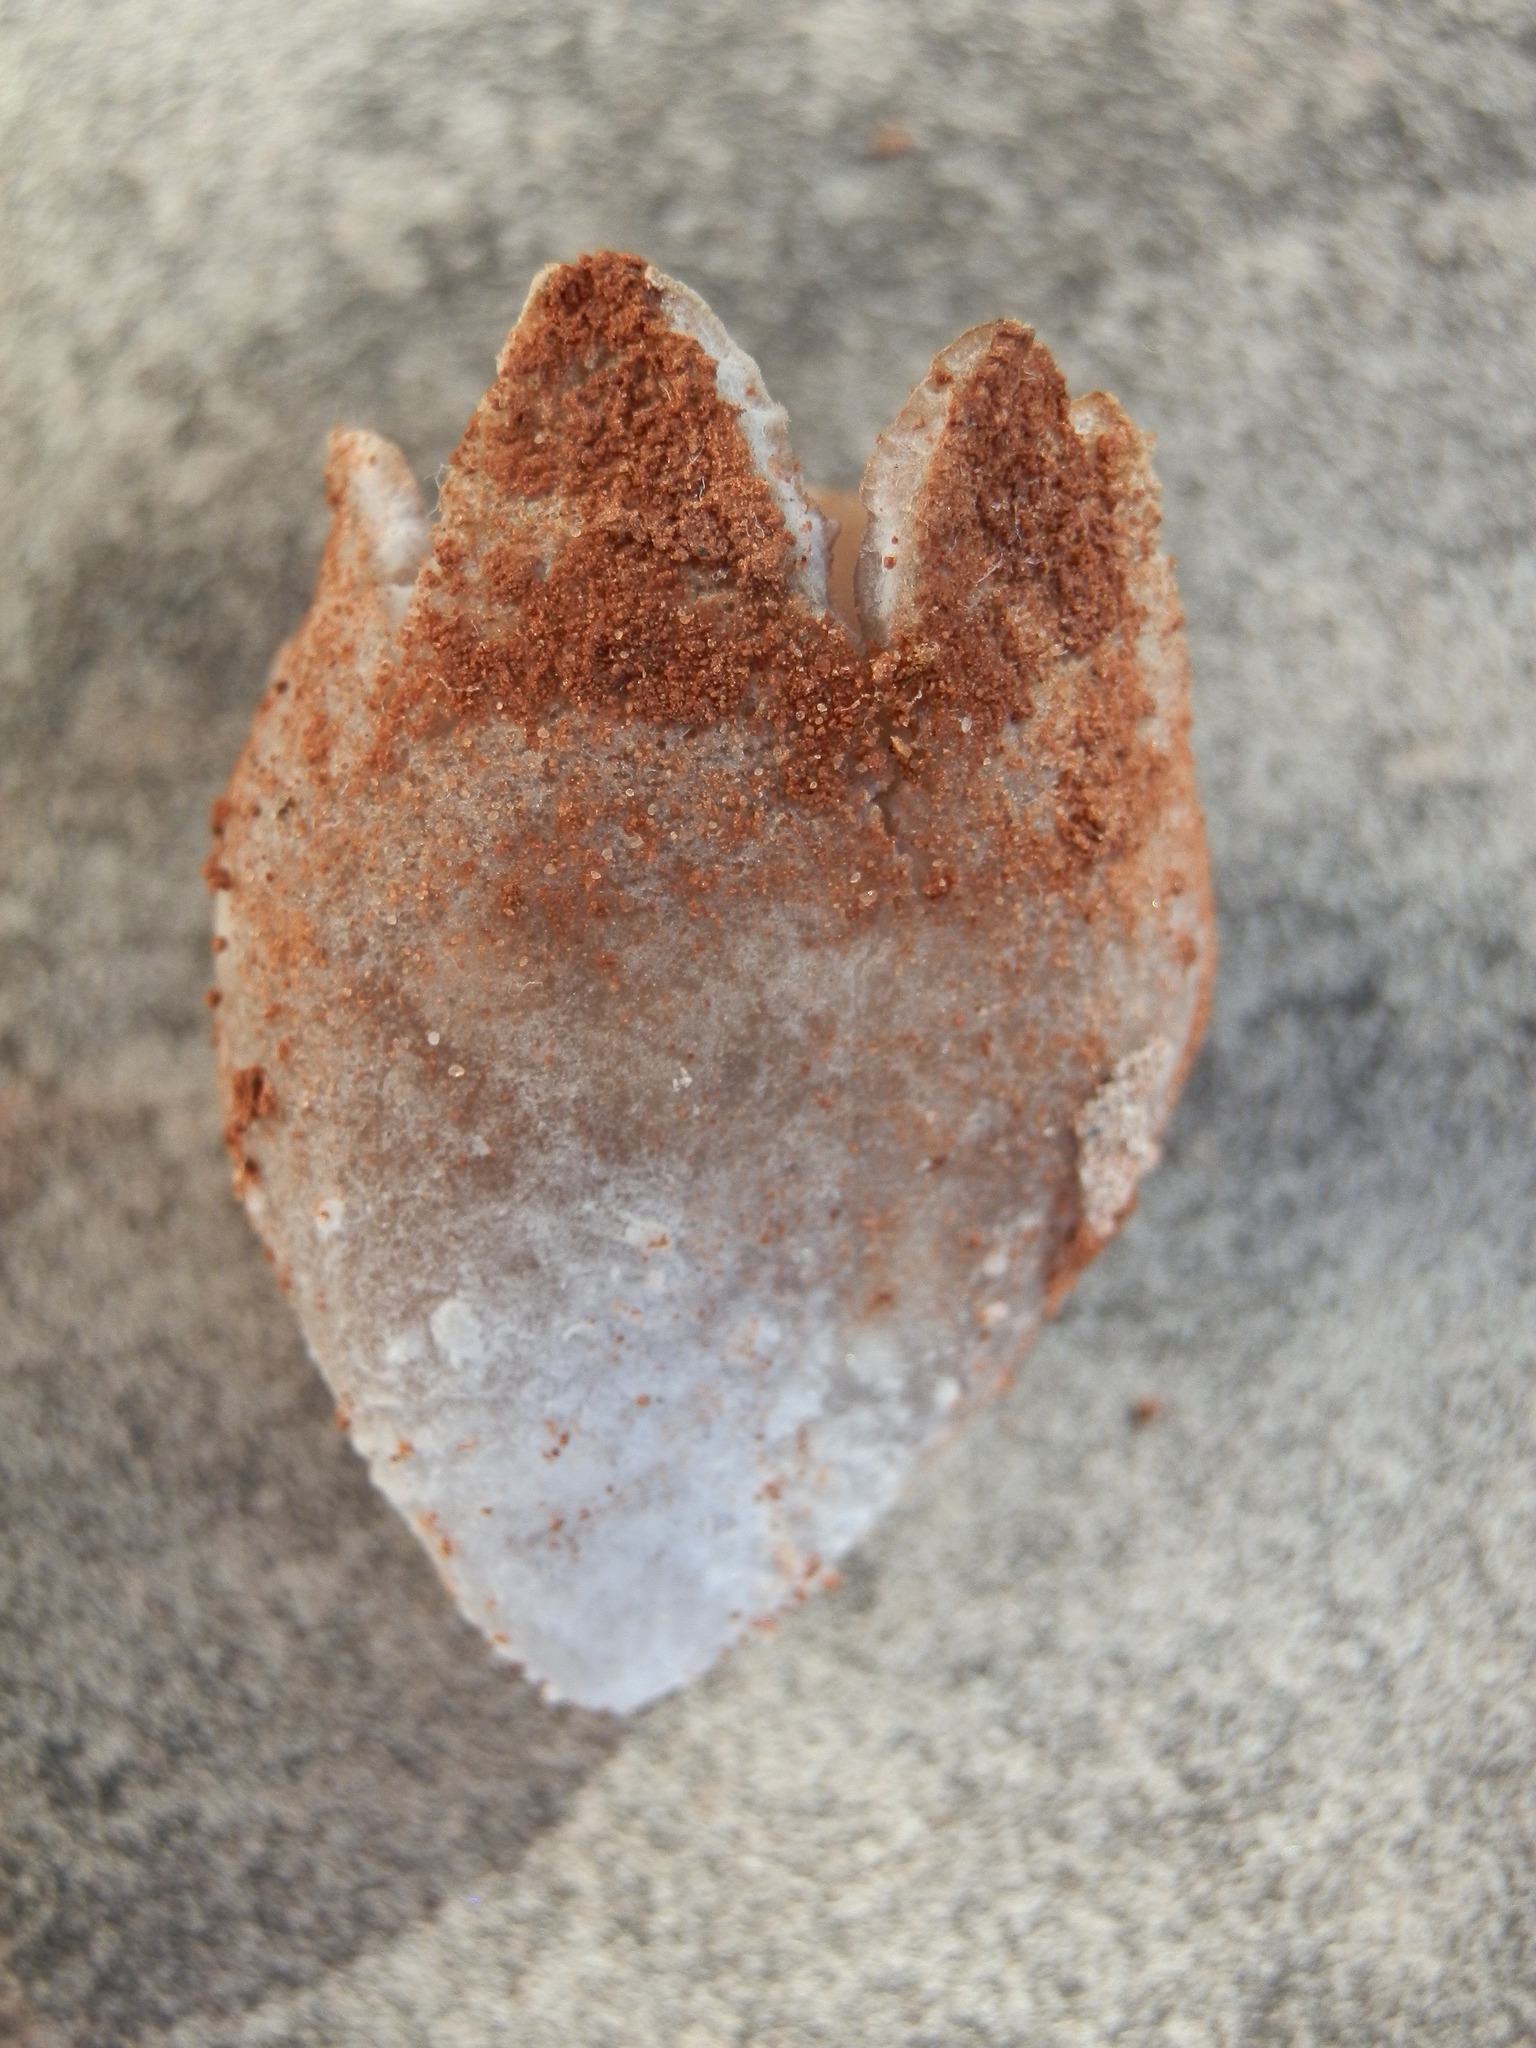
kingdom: Fungi
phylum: Ascomycota
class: Pezizomycetes
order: Pezizales
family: Pezizaceae
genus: Sarcosphaera
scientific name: Sarcosphaera coronaria
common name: Violet crowncup
